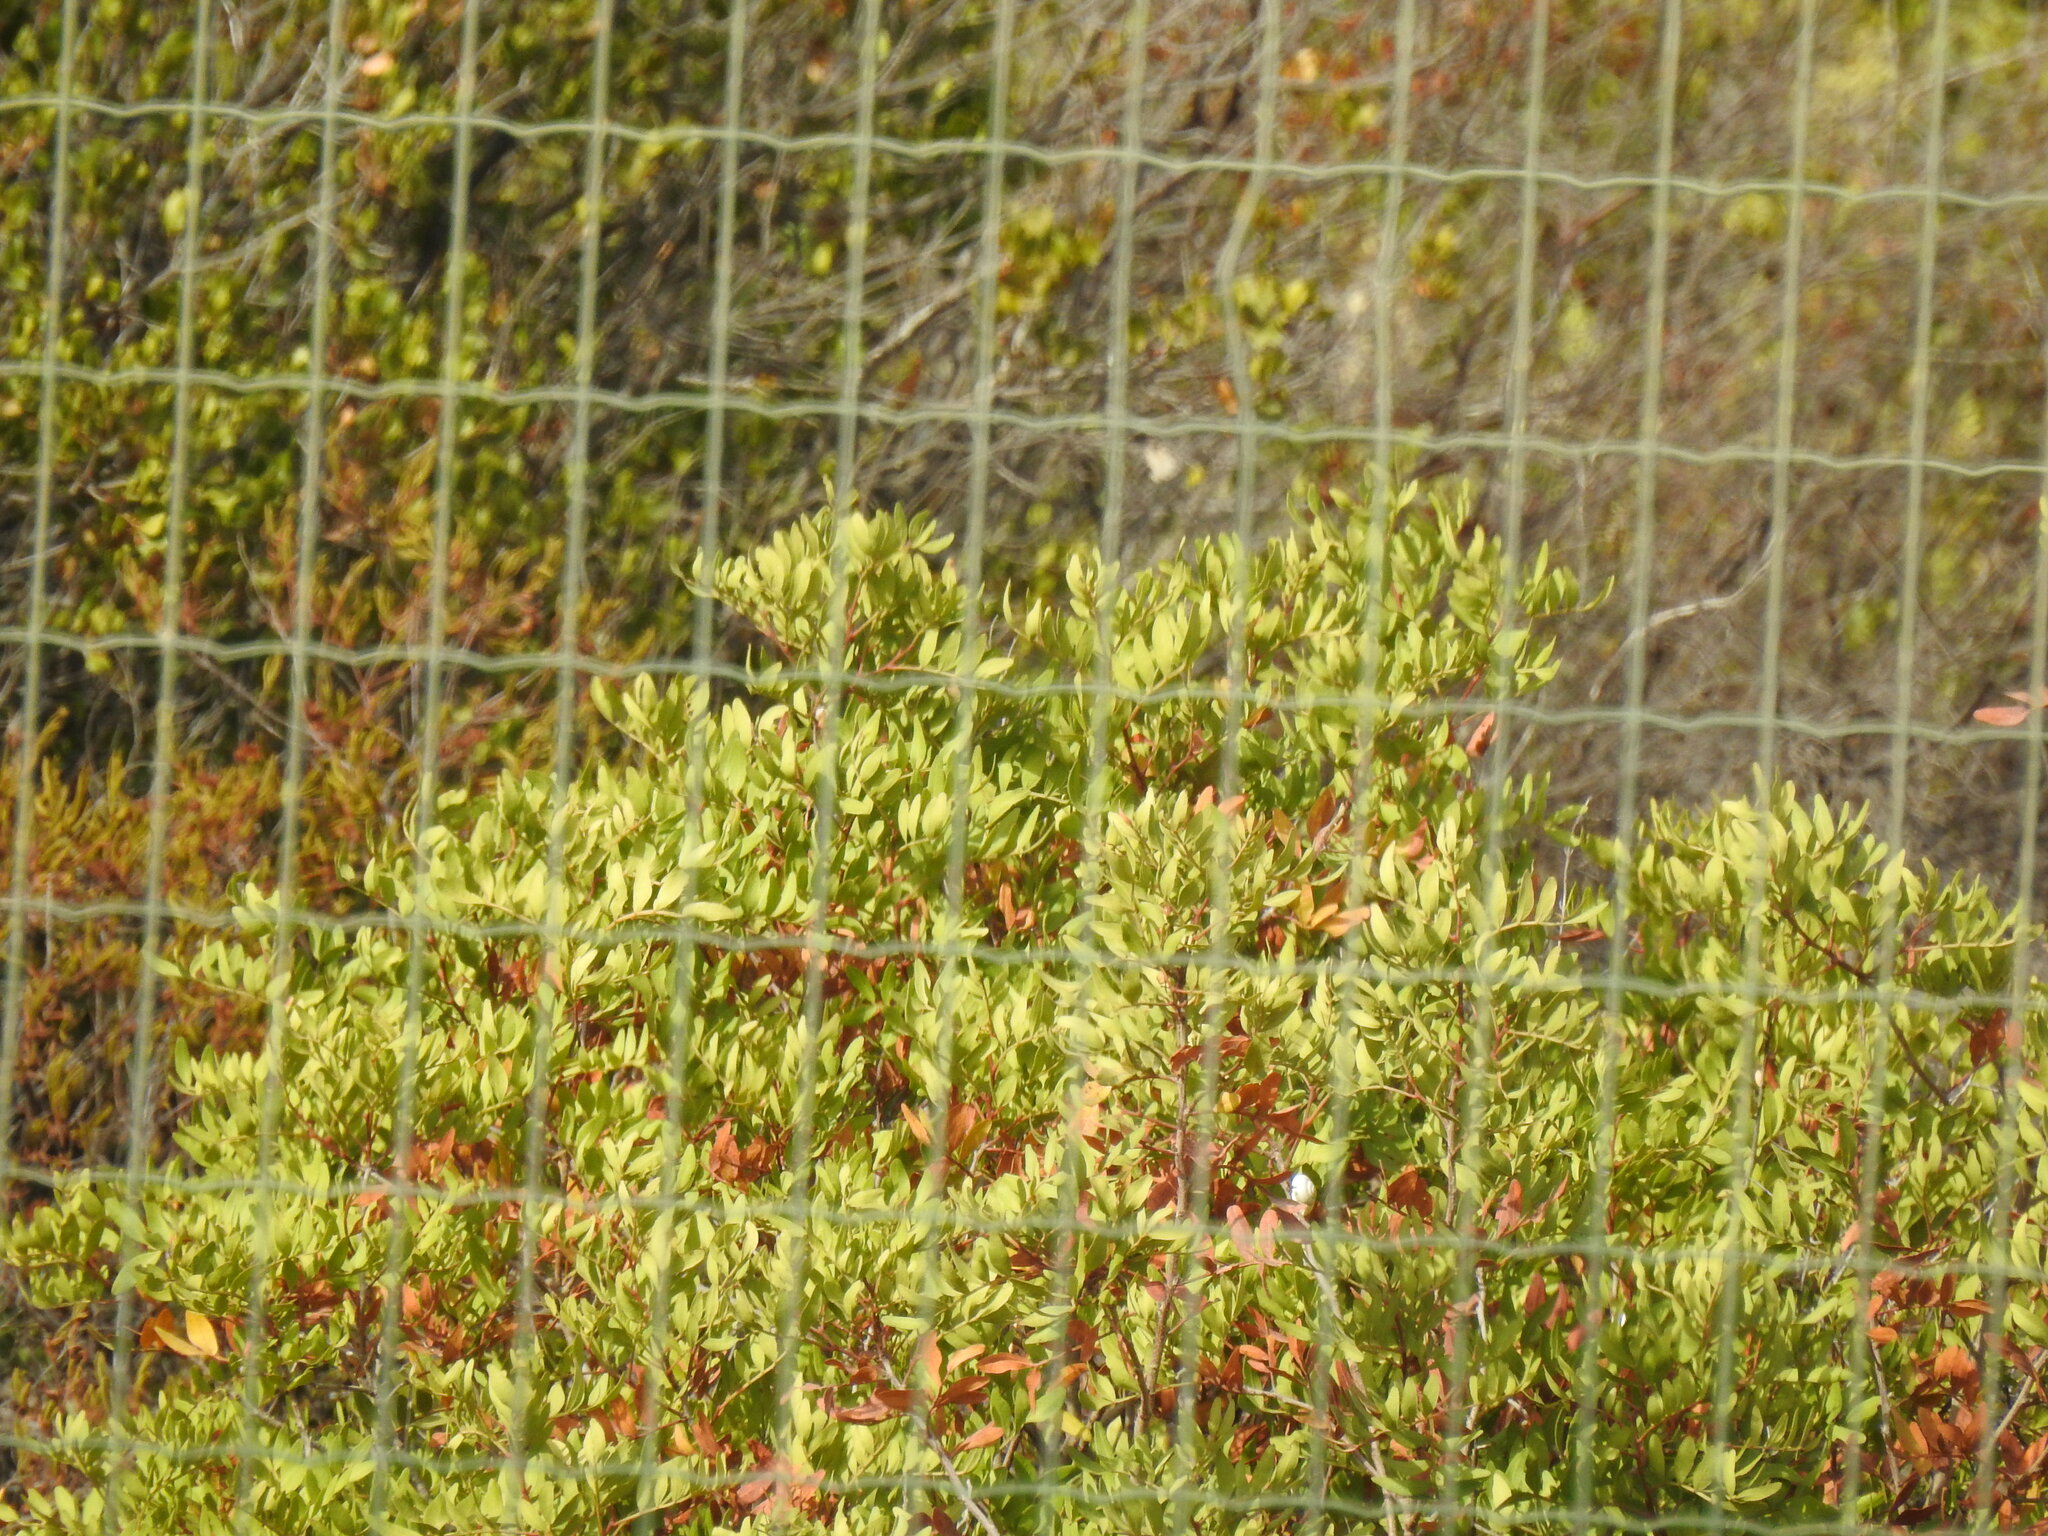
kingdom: Plantae
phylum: Tracheophyta
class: Magnoliopsida
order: Sapindales
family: Anacardiaceae
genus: Pistacia
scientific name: Pistacia lentiscus
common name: Lentisk
